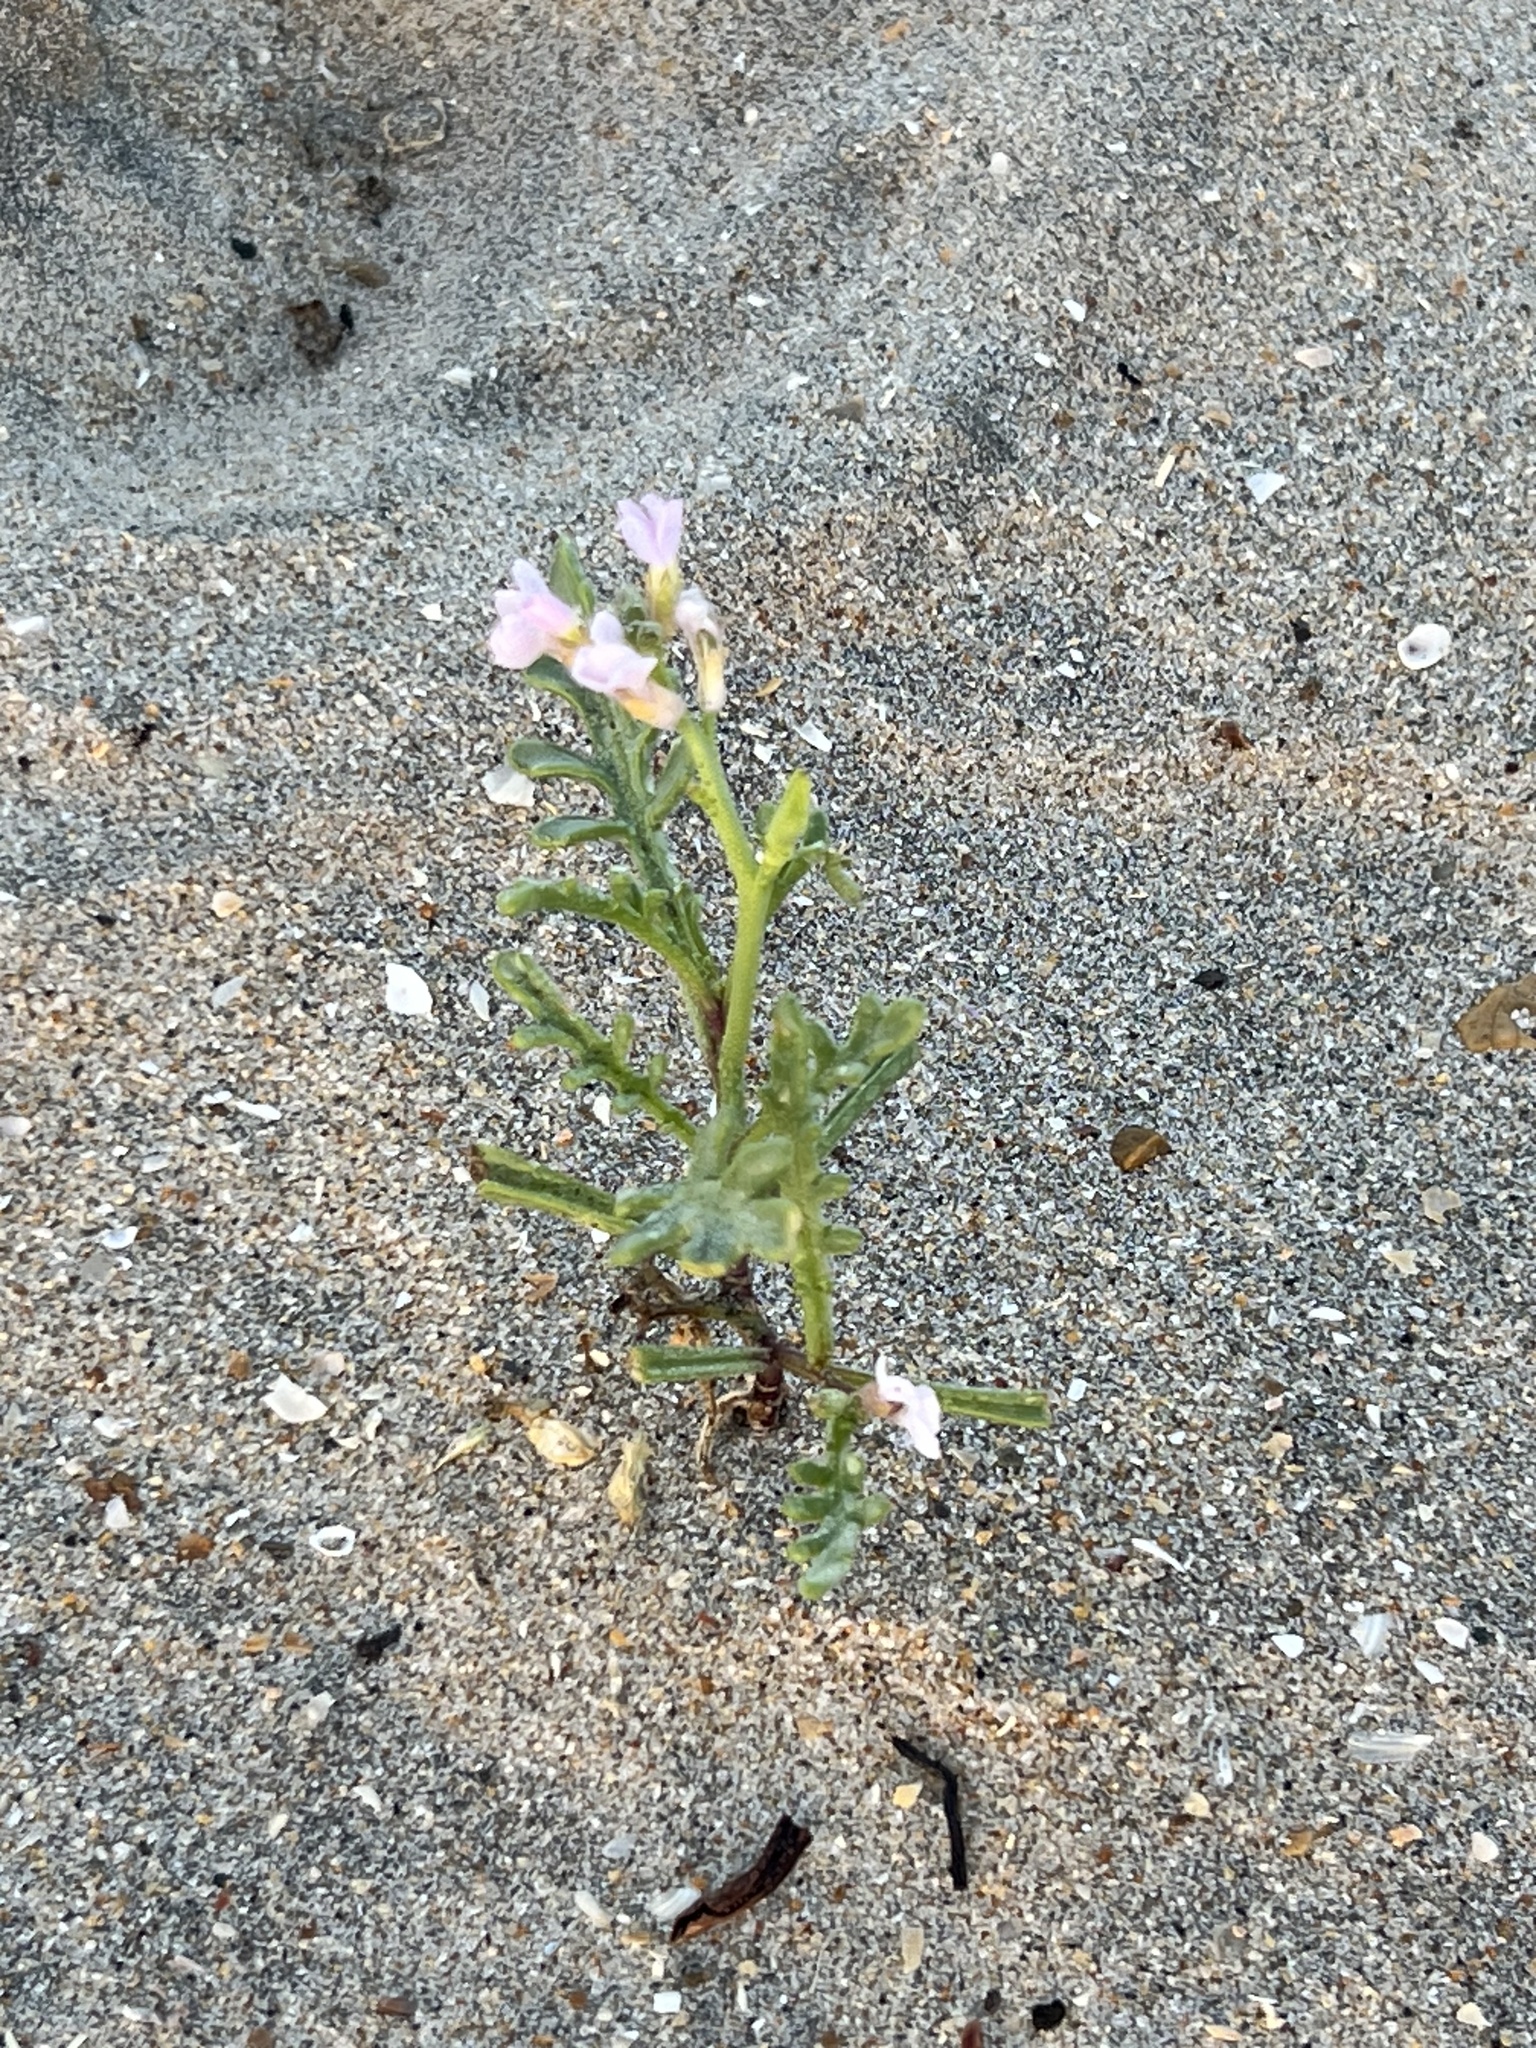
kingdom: Plantae
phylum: Tracheophyta
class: Magnoliopsida
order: Brassicales
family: Brassicaceae
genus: Cakile
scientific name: Cakile maritima
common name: Sea rocket
